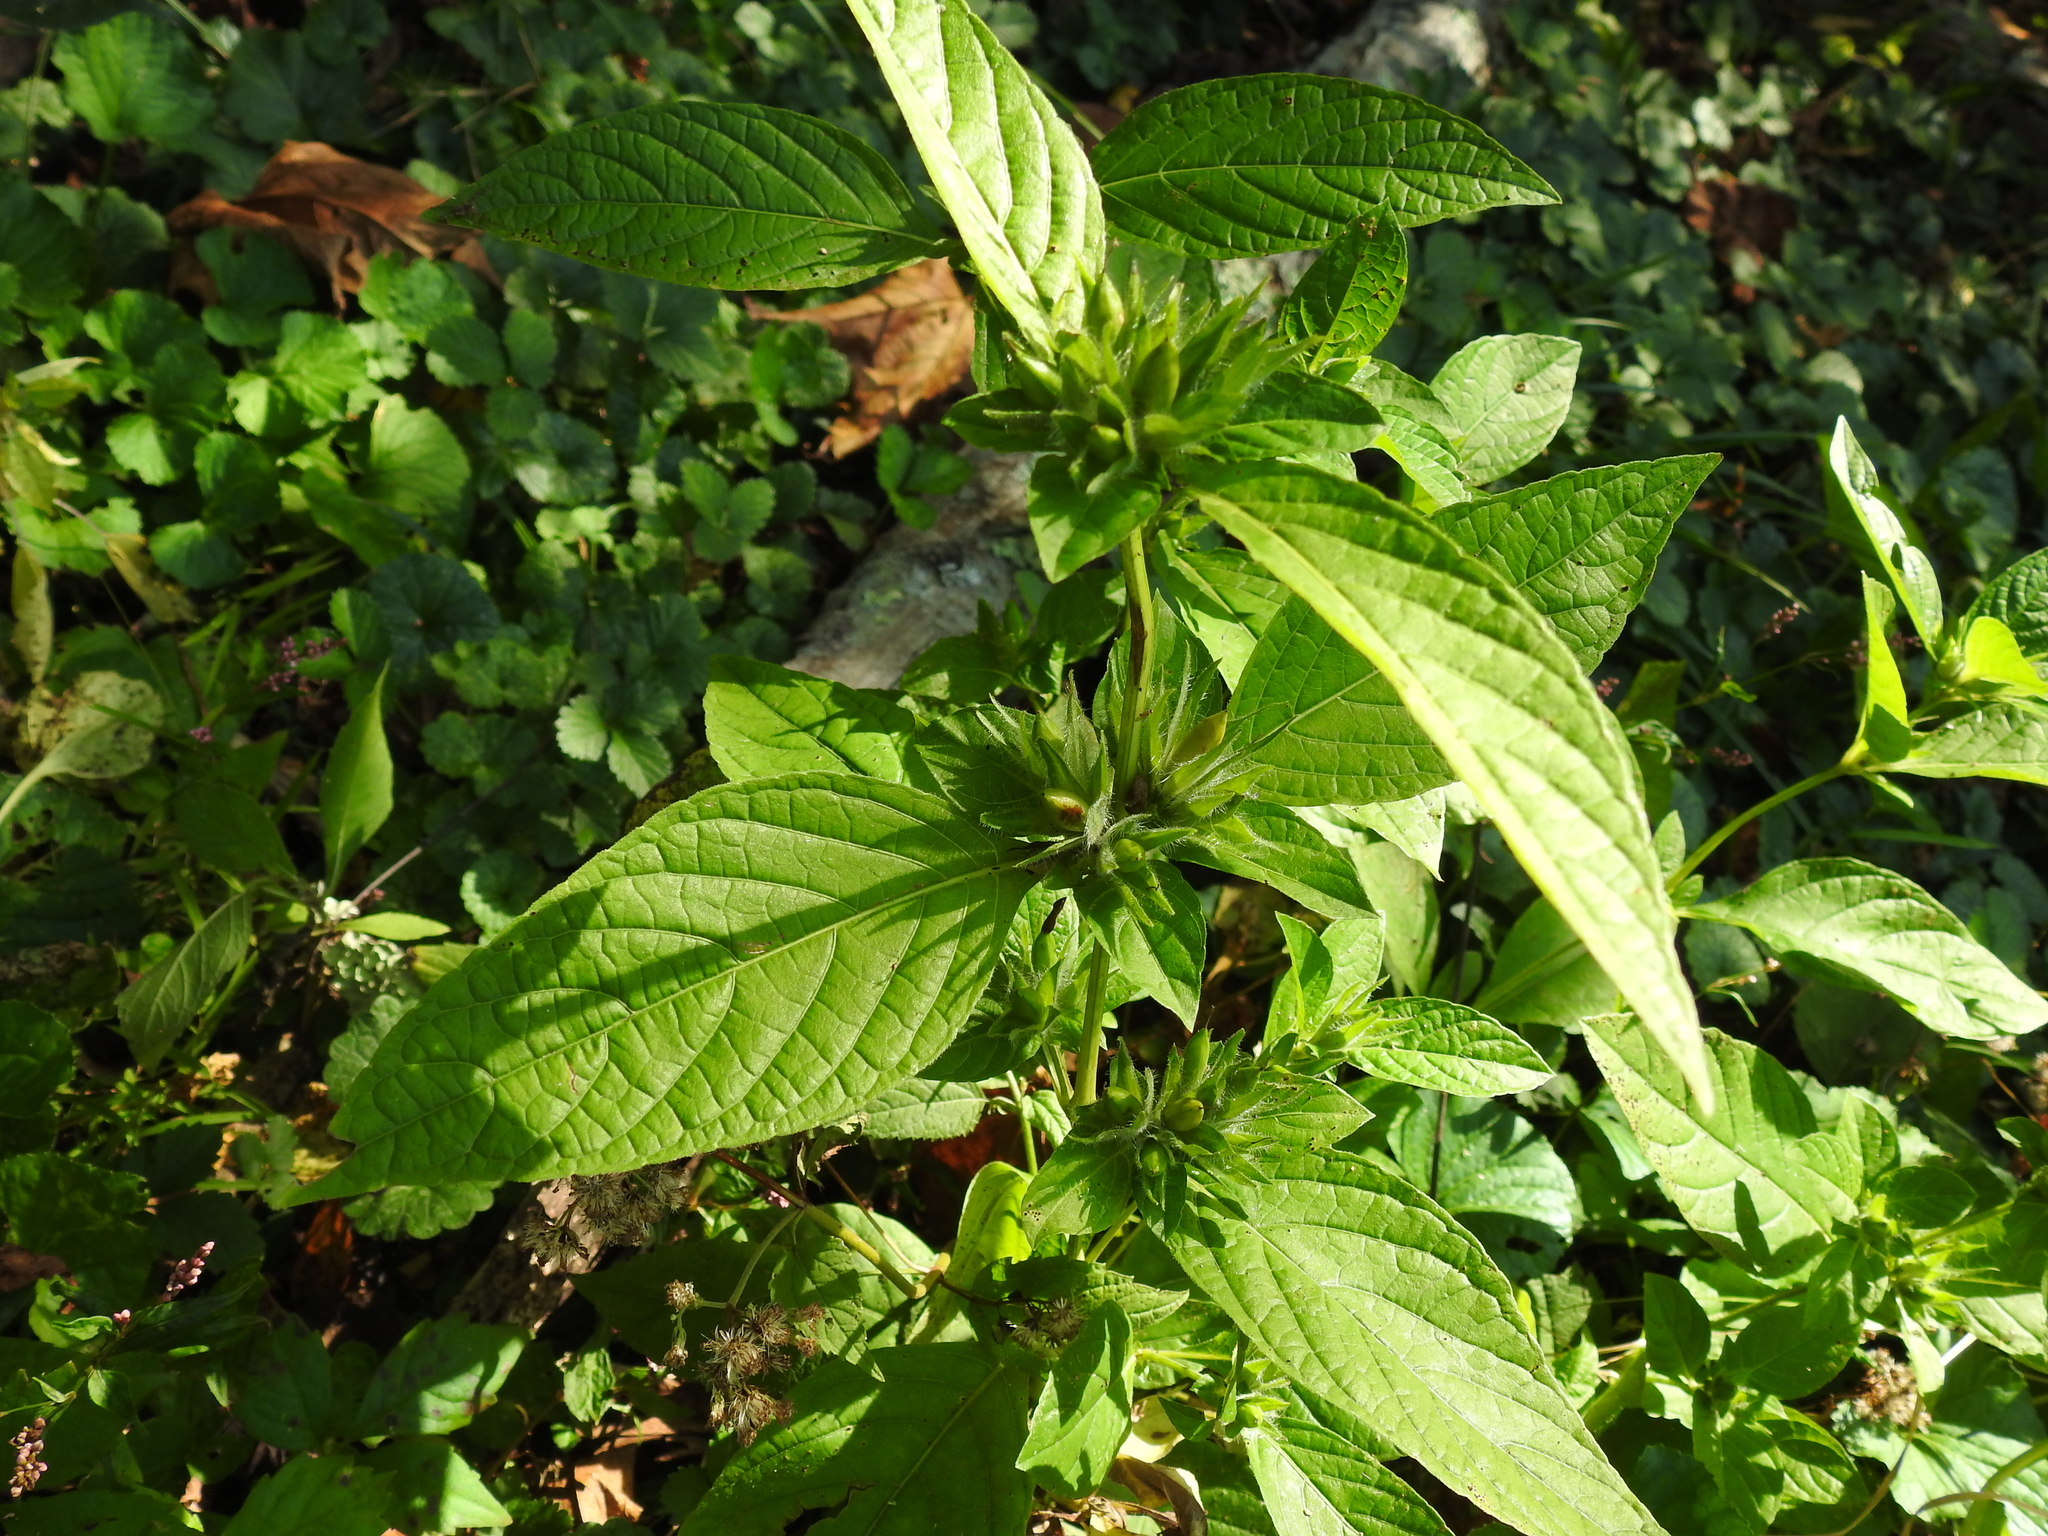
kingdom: Plantae
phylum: Tracheophyta
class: Magnoliopsida
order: Lamiales
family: Acanthaceae
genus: Ruellia
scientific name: Ruellia strepens
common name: Limestone wild petunia
